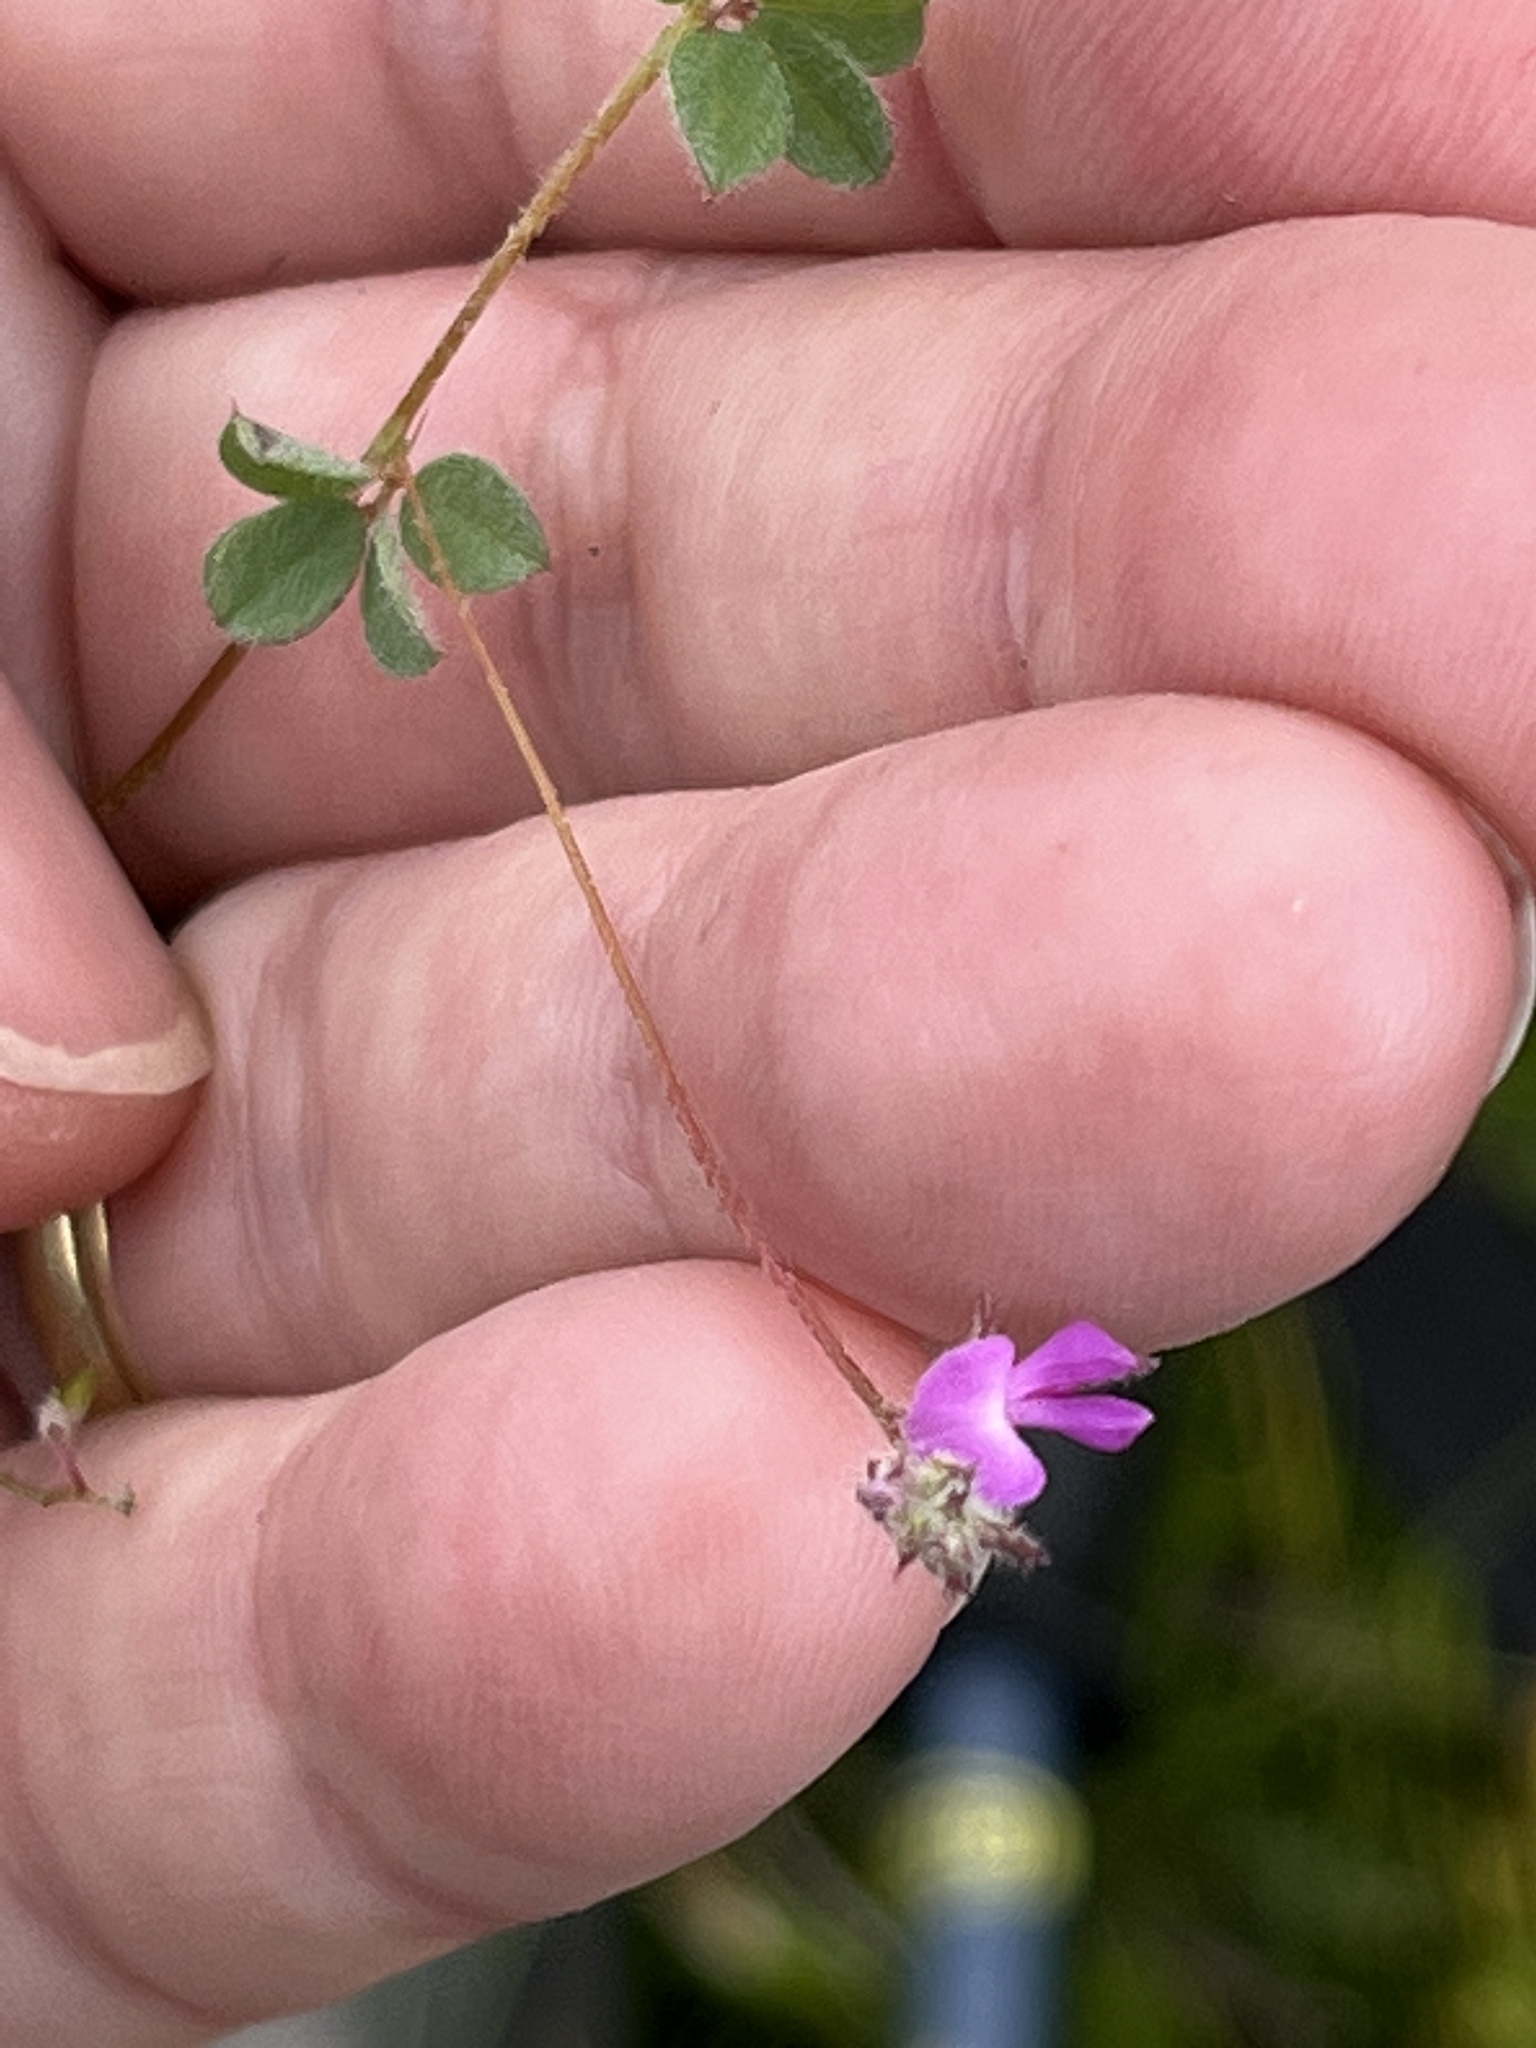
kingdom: Plantae
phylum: Tracheophyta
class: Magnoliopsida
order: Fabales
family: Fabaceae
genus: Indigofera
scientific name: Indigofera alopecuroides
